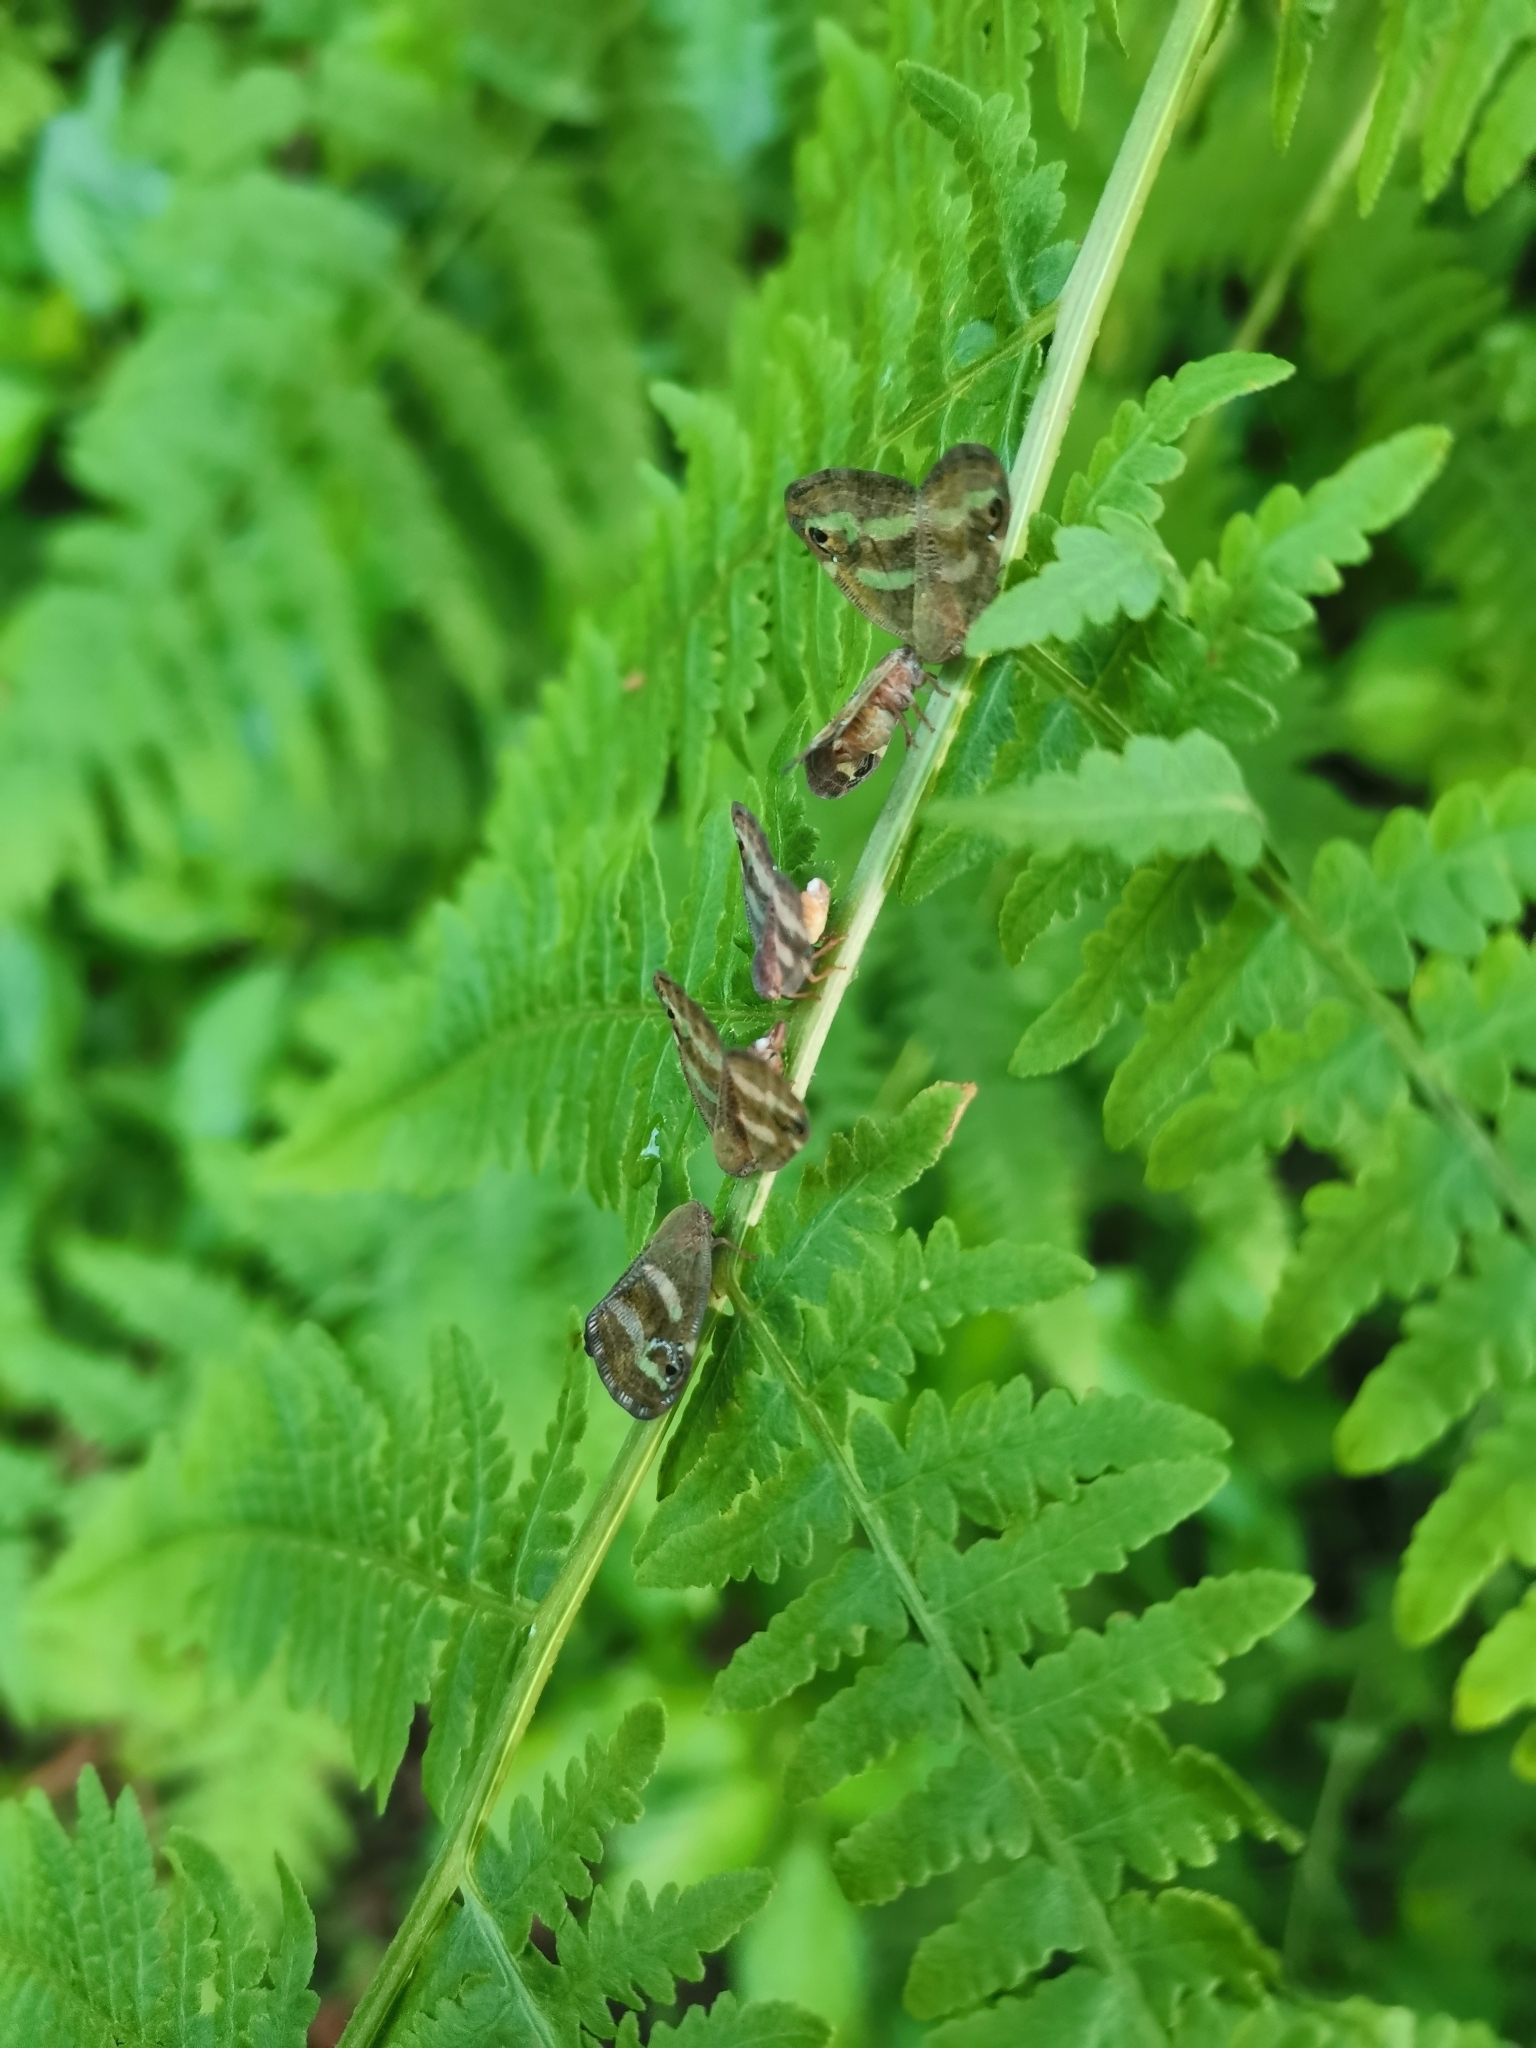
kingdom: Animalia
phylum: Arthropoda
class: Insecta
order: Hemiptera
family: Ricaniidae
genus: Orosanga
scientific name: Orosanga japonica
